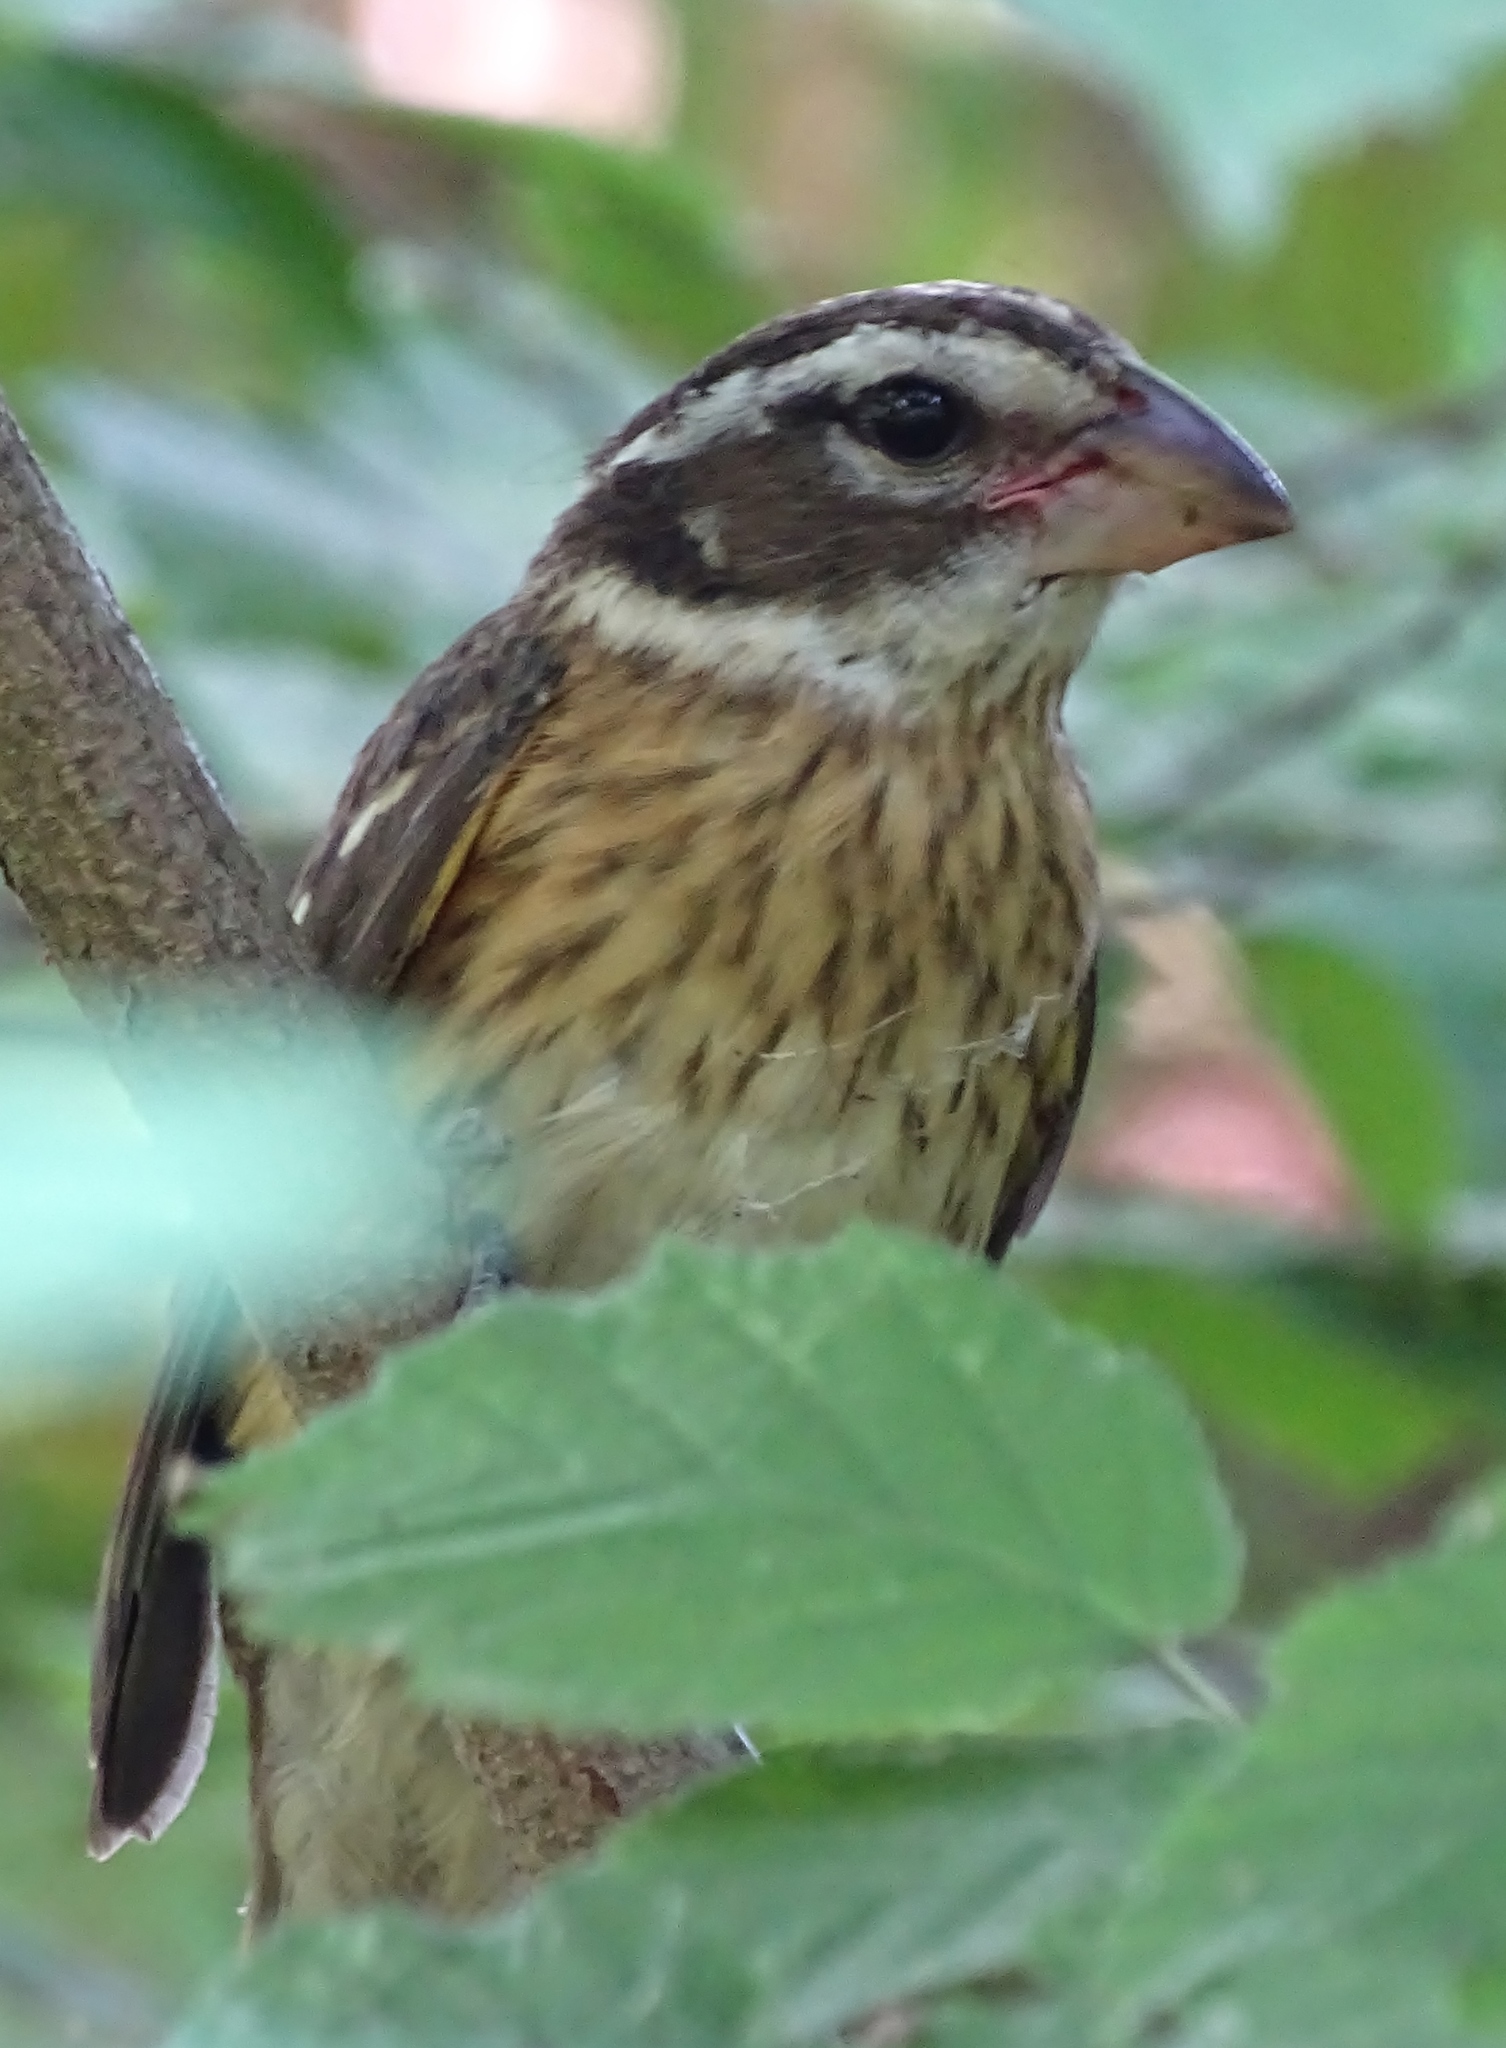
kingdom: Animalia
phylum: Chordata
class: Aves
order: Passeriformes
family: Cardinalidae
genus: Pheucticus
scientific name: Pheucticus ludovicianus
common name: Rose-breasted grosbeak
